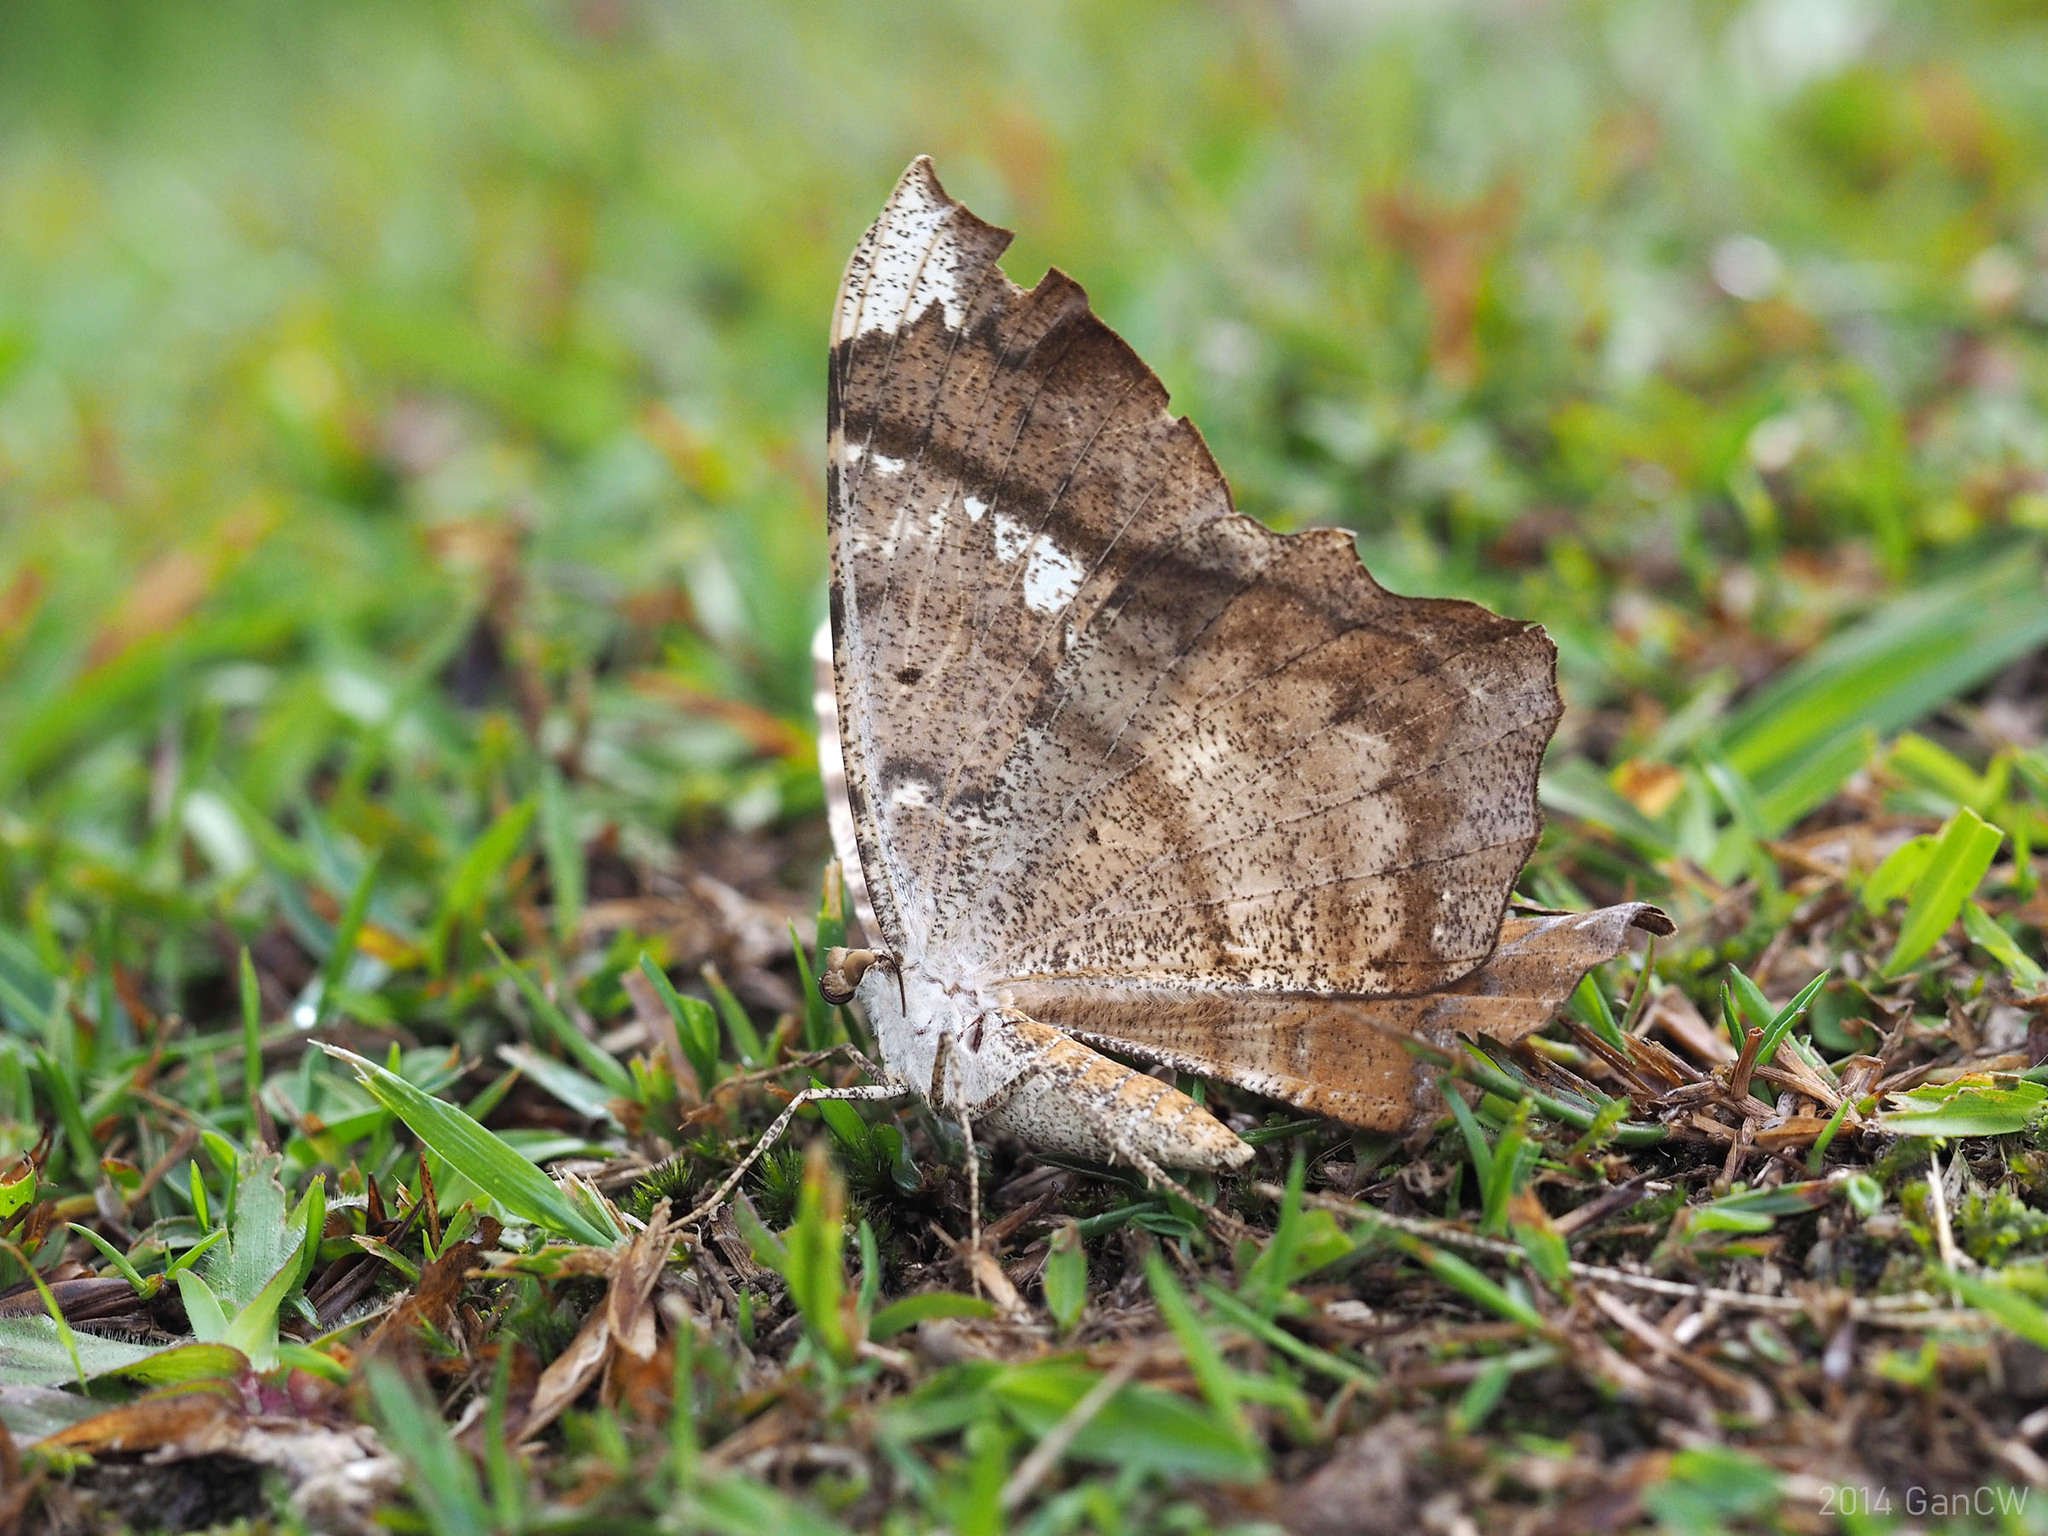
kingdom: Animalia
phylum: Arthropoda
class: Insecta
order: Lepidoptera
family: Geometridae
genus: Amblychia
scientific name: Amblychia angeronaria
